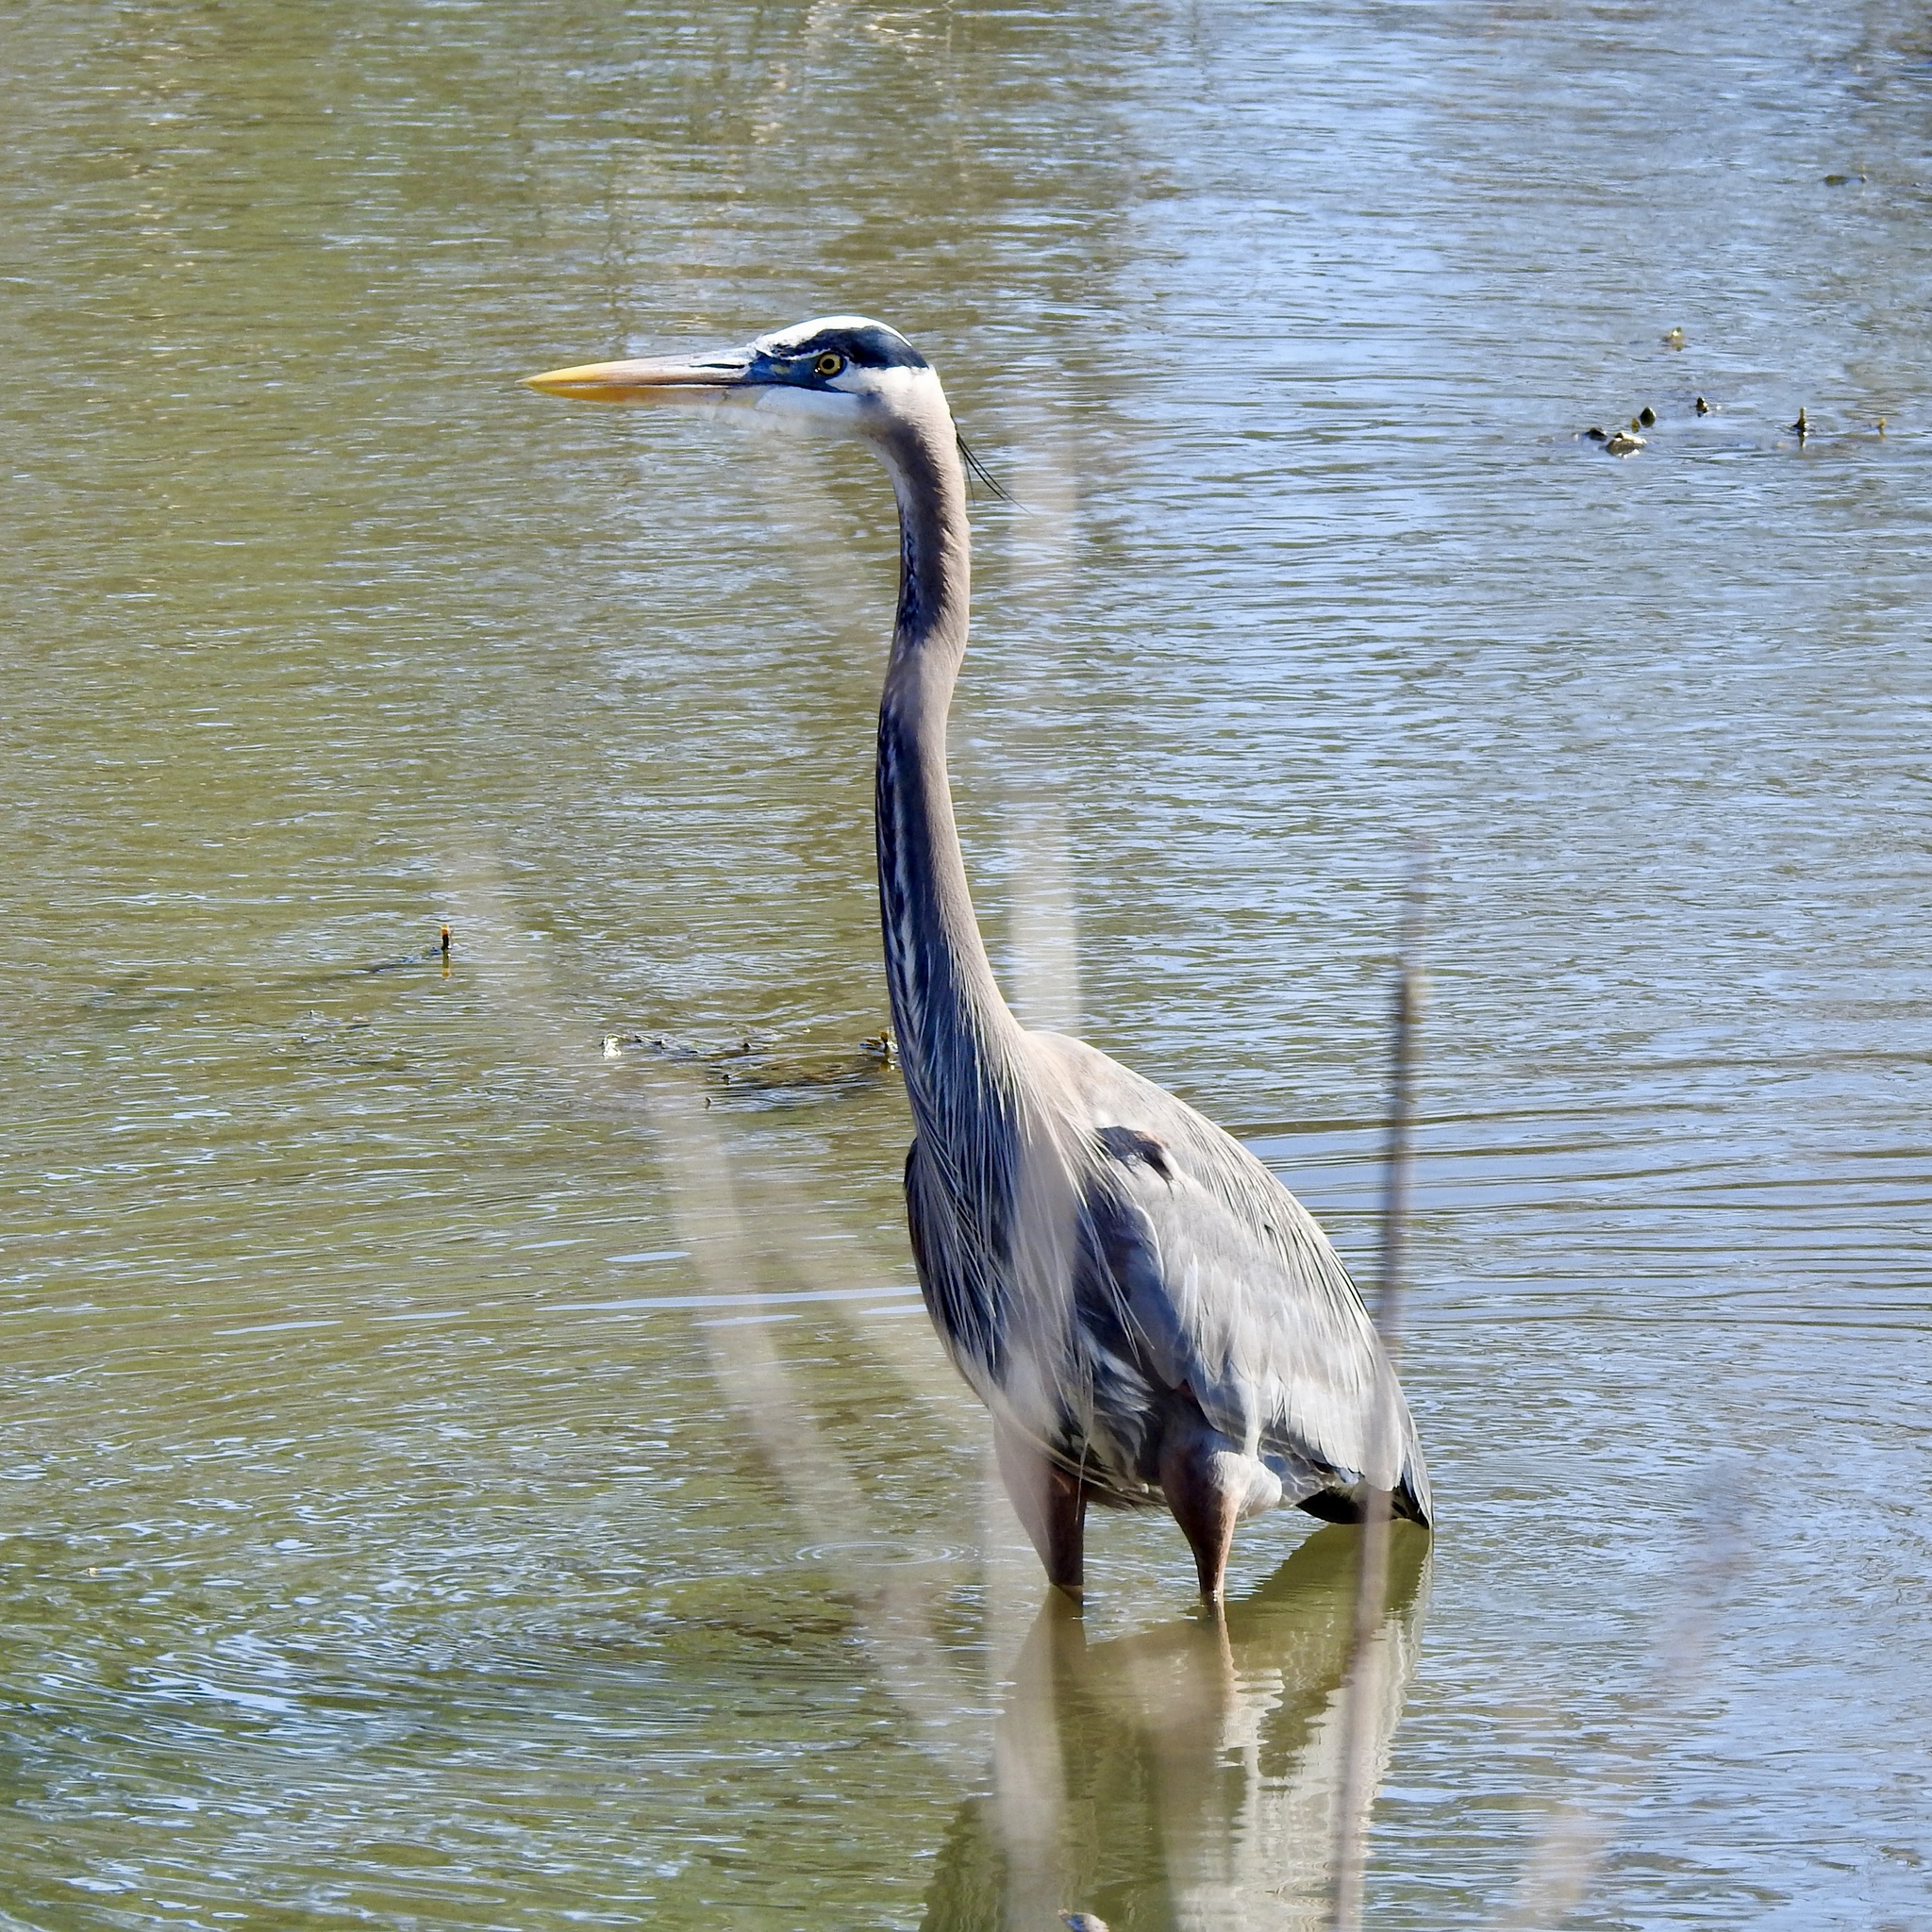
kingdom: Animalia
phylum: Chordata
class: Aves
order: Pelecaniformes
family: Ardeidae
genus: Ardea
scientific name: Ardea herodias
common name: Great blue heron
